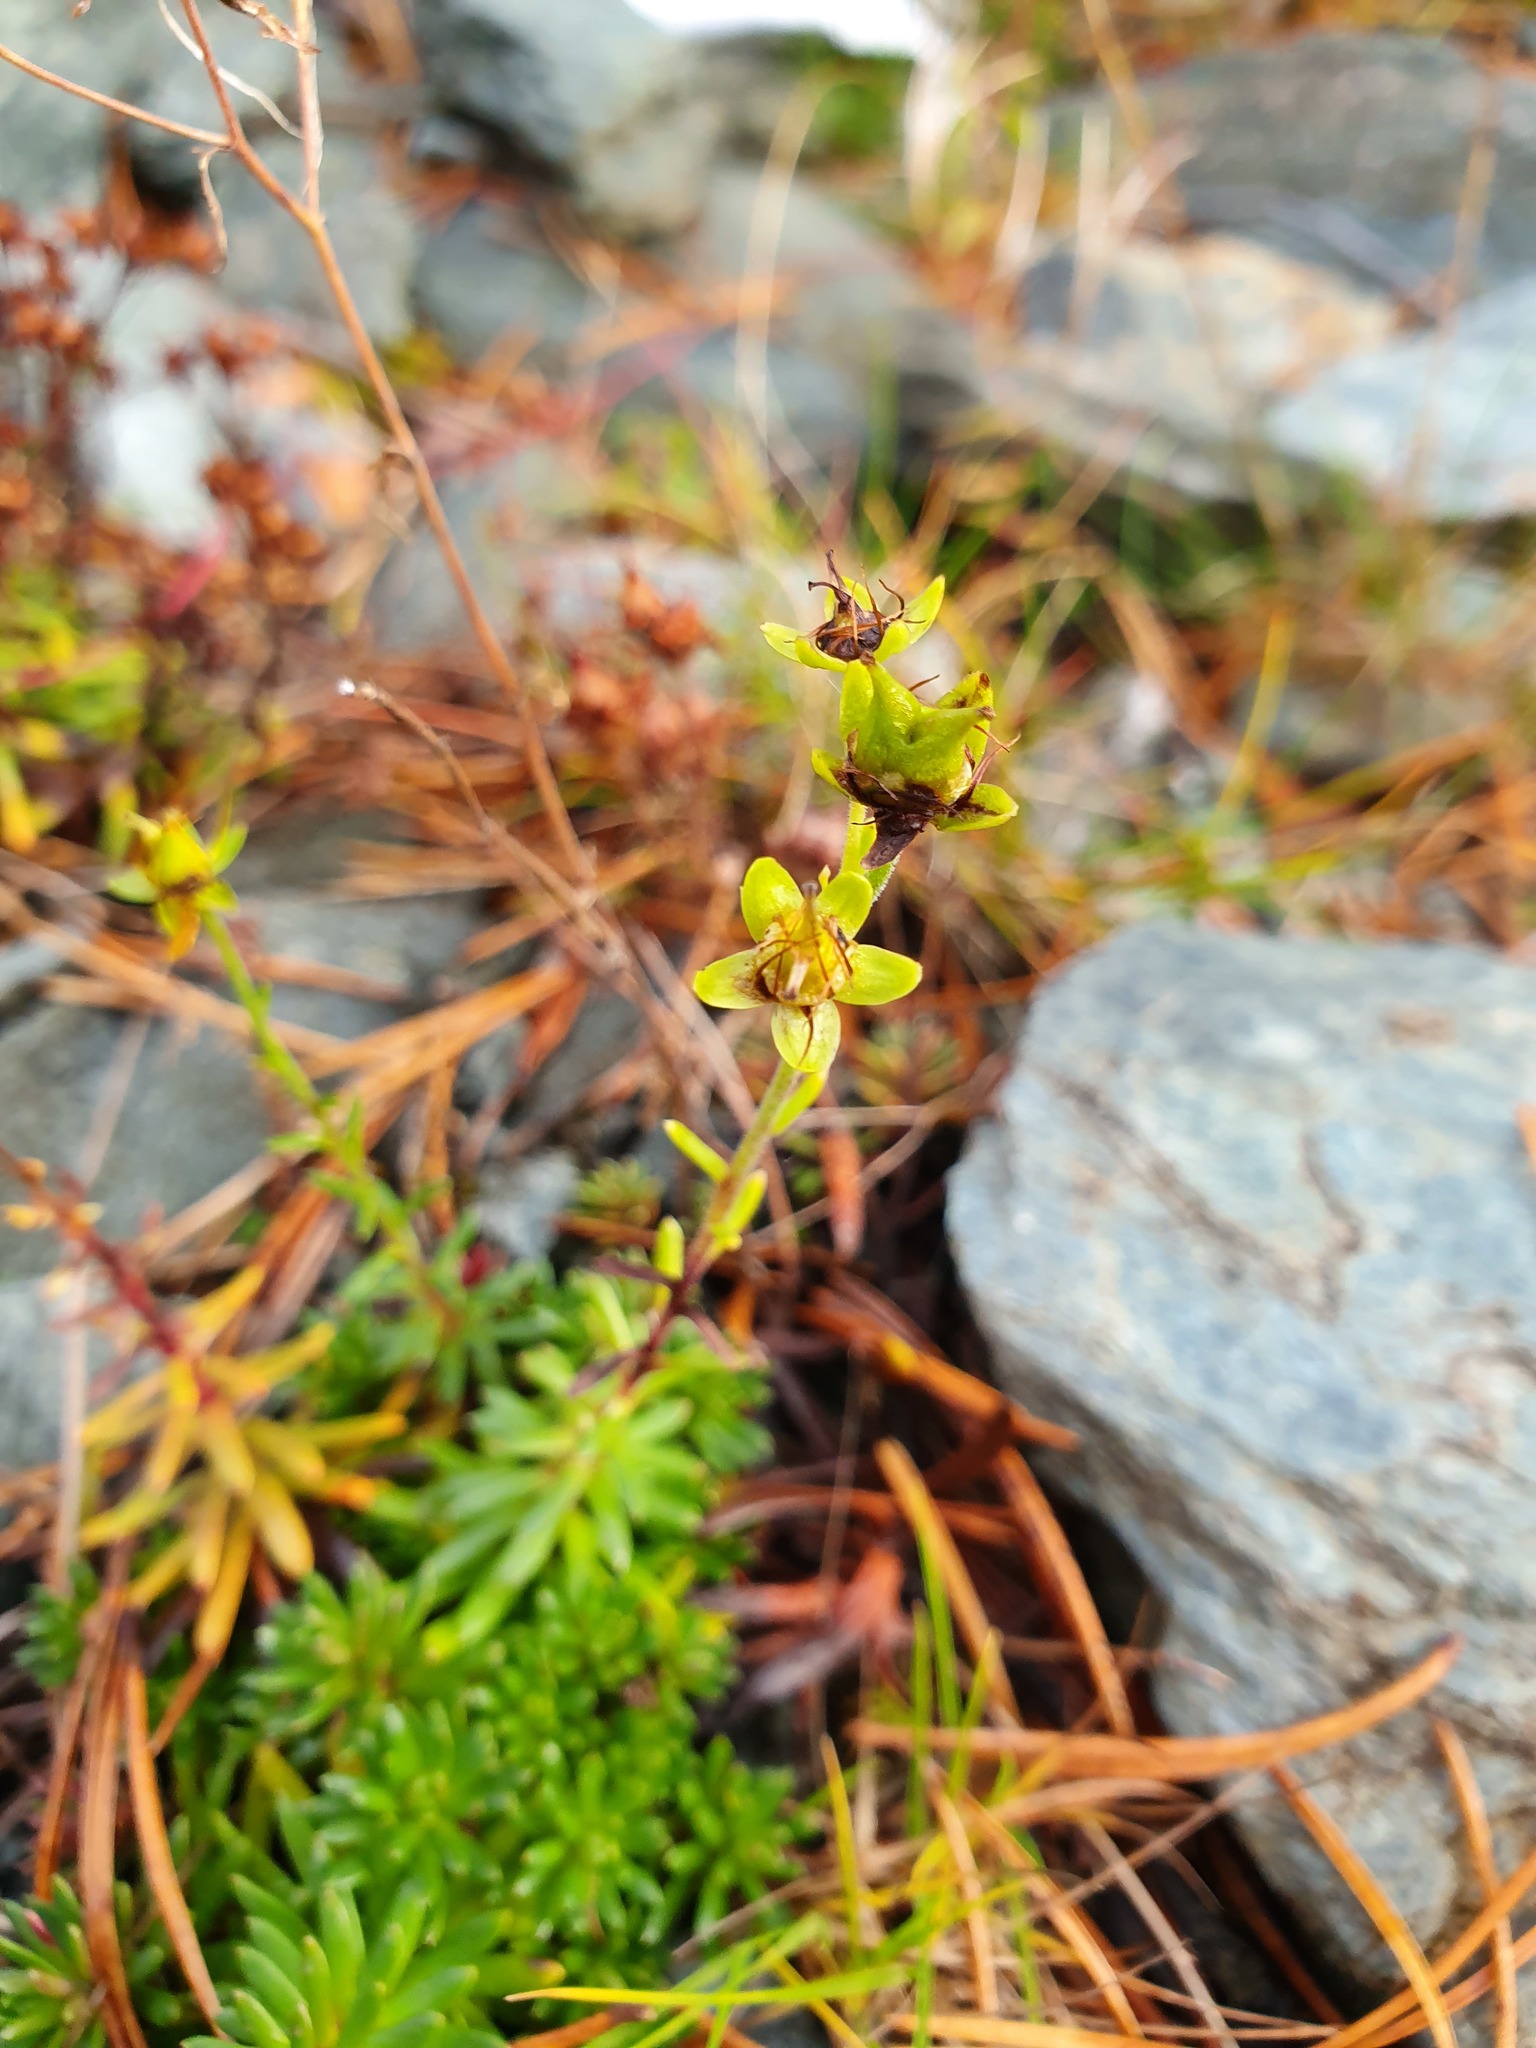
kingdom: Plantae
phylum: Tracheophyta
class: Magnoliopsida
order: Saxifragales
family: Saxifragaceae
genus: Saxifraga
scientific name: Saxifraga aizoides
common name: Yellow mountain saxifrage
